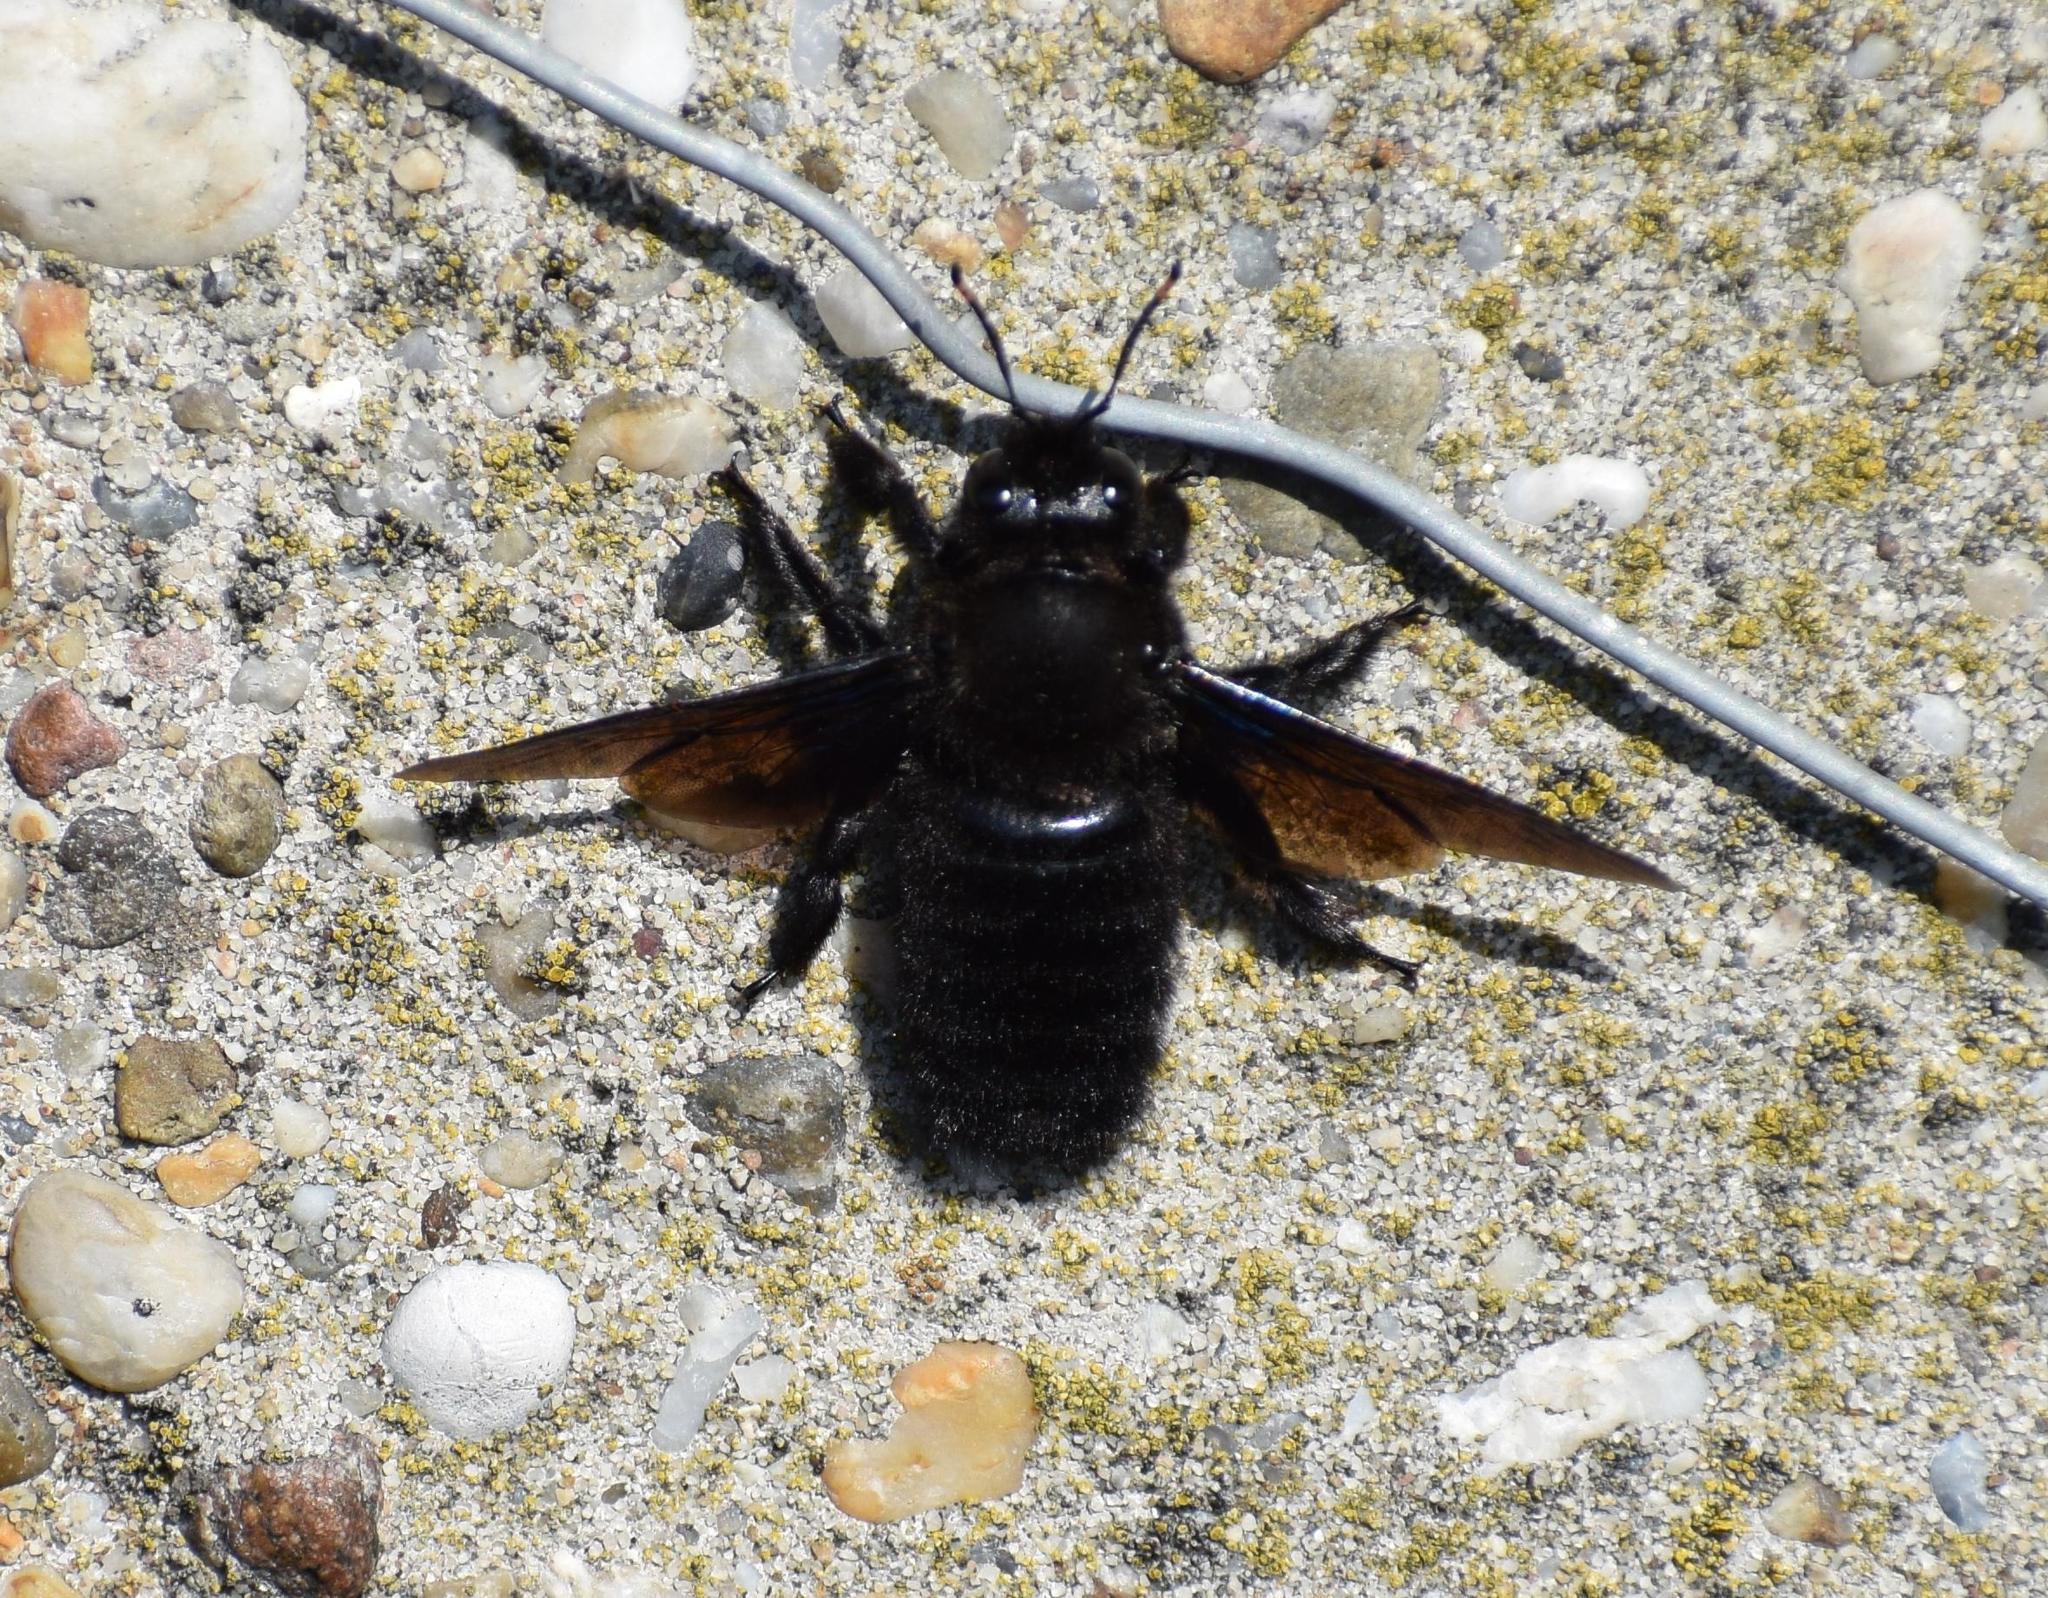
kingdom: Animalia
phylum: Arthropoda
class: Insecta
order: Hymenoptera
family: Apidae
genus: Xylocopa
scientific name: Xylocopa violacea
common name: Violet carpenter bee
